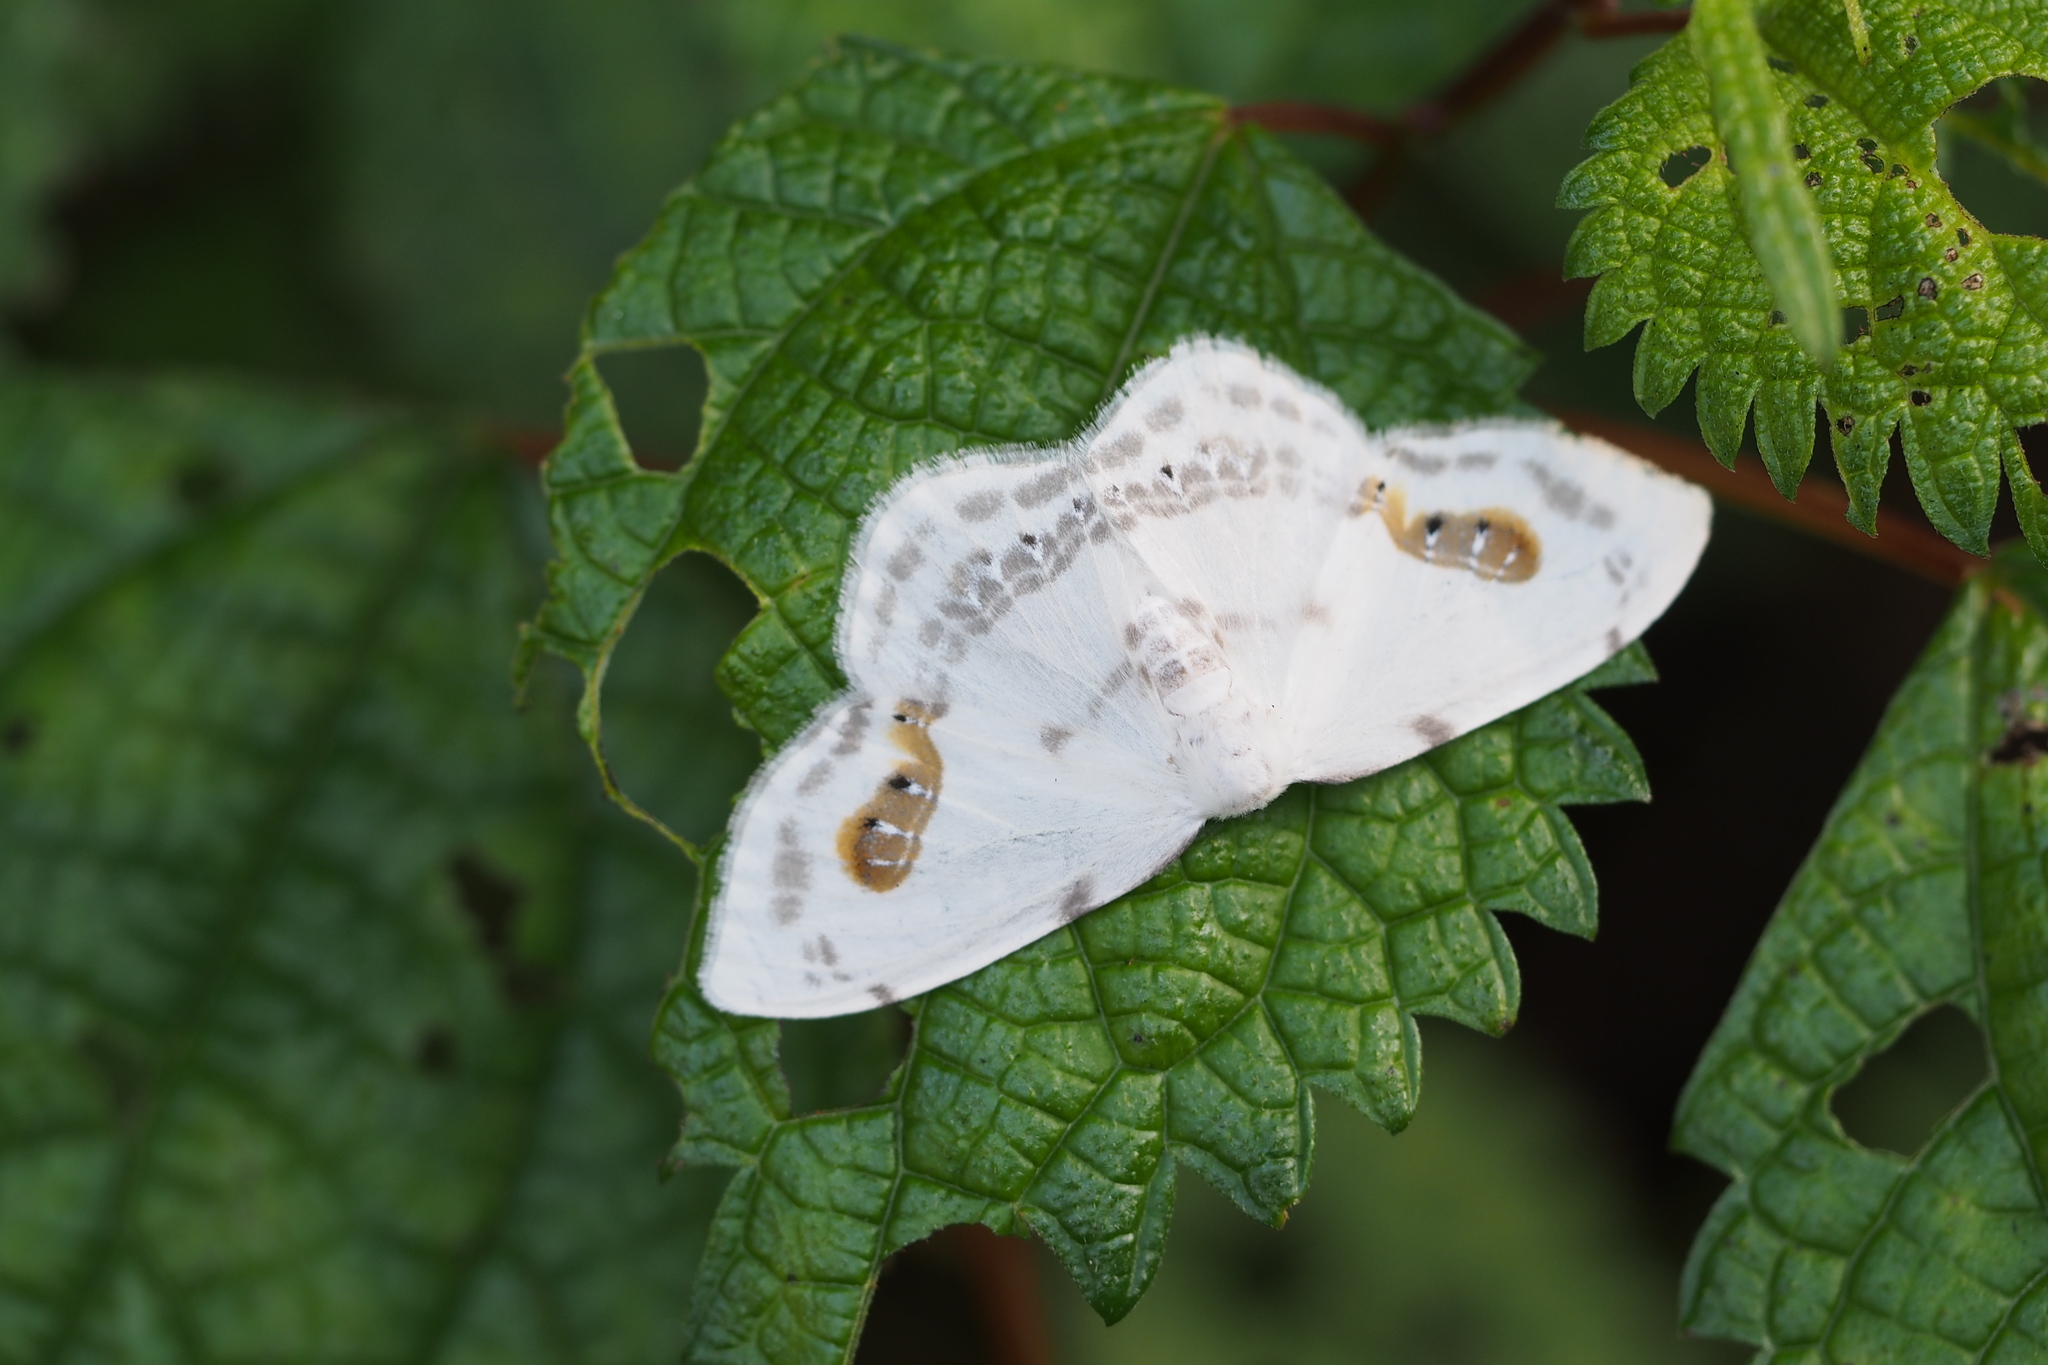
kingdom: Animalia
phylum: Arthropoda
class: Insecta
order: Lepidoptera
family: Drepanidae
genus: Auzata
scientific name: Auzata superba
